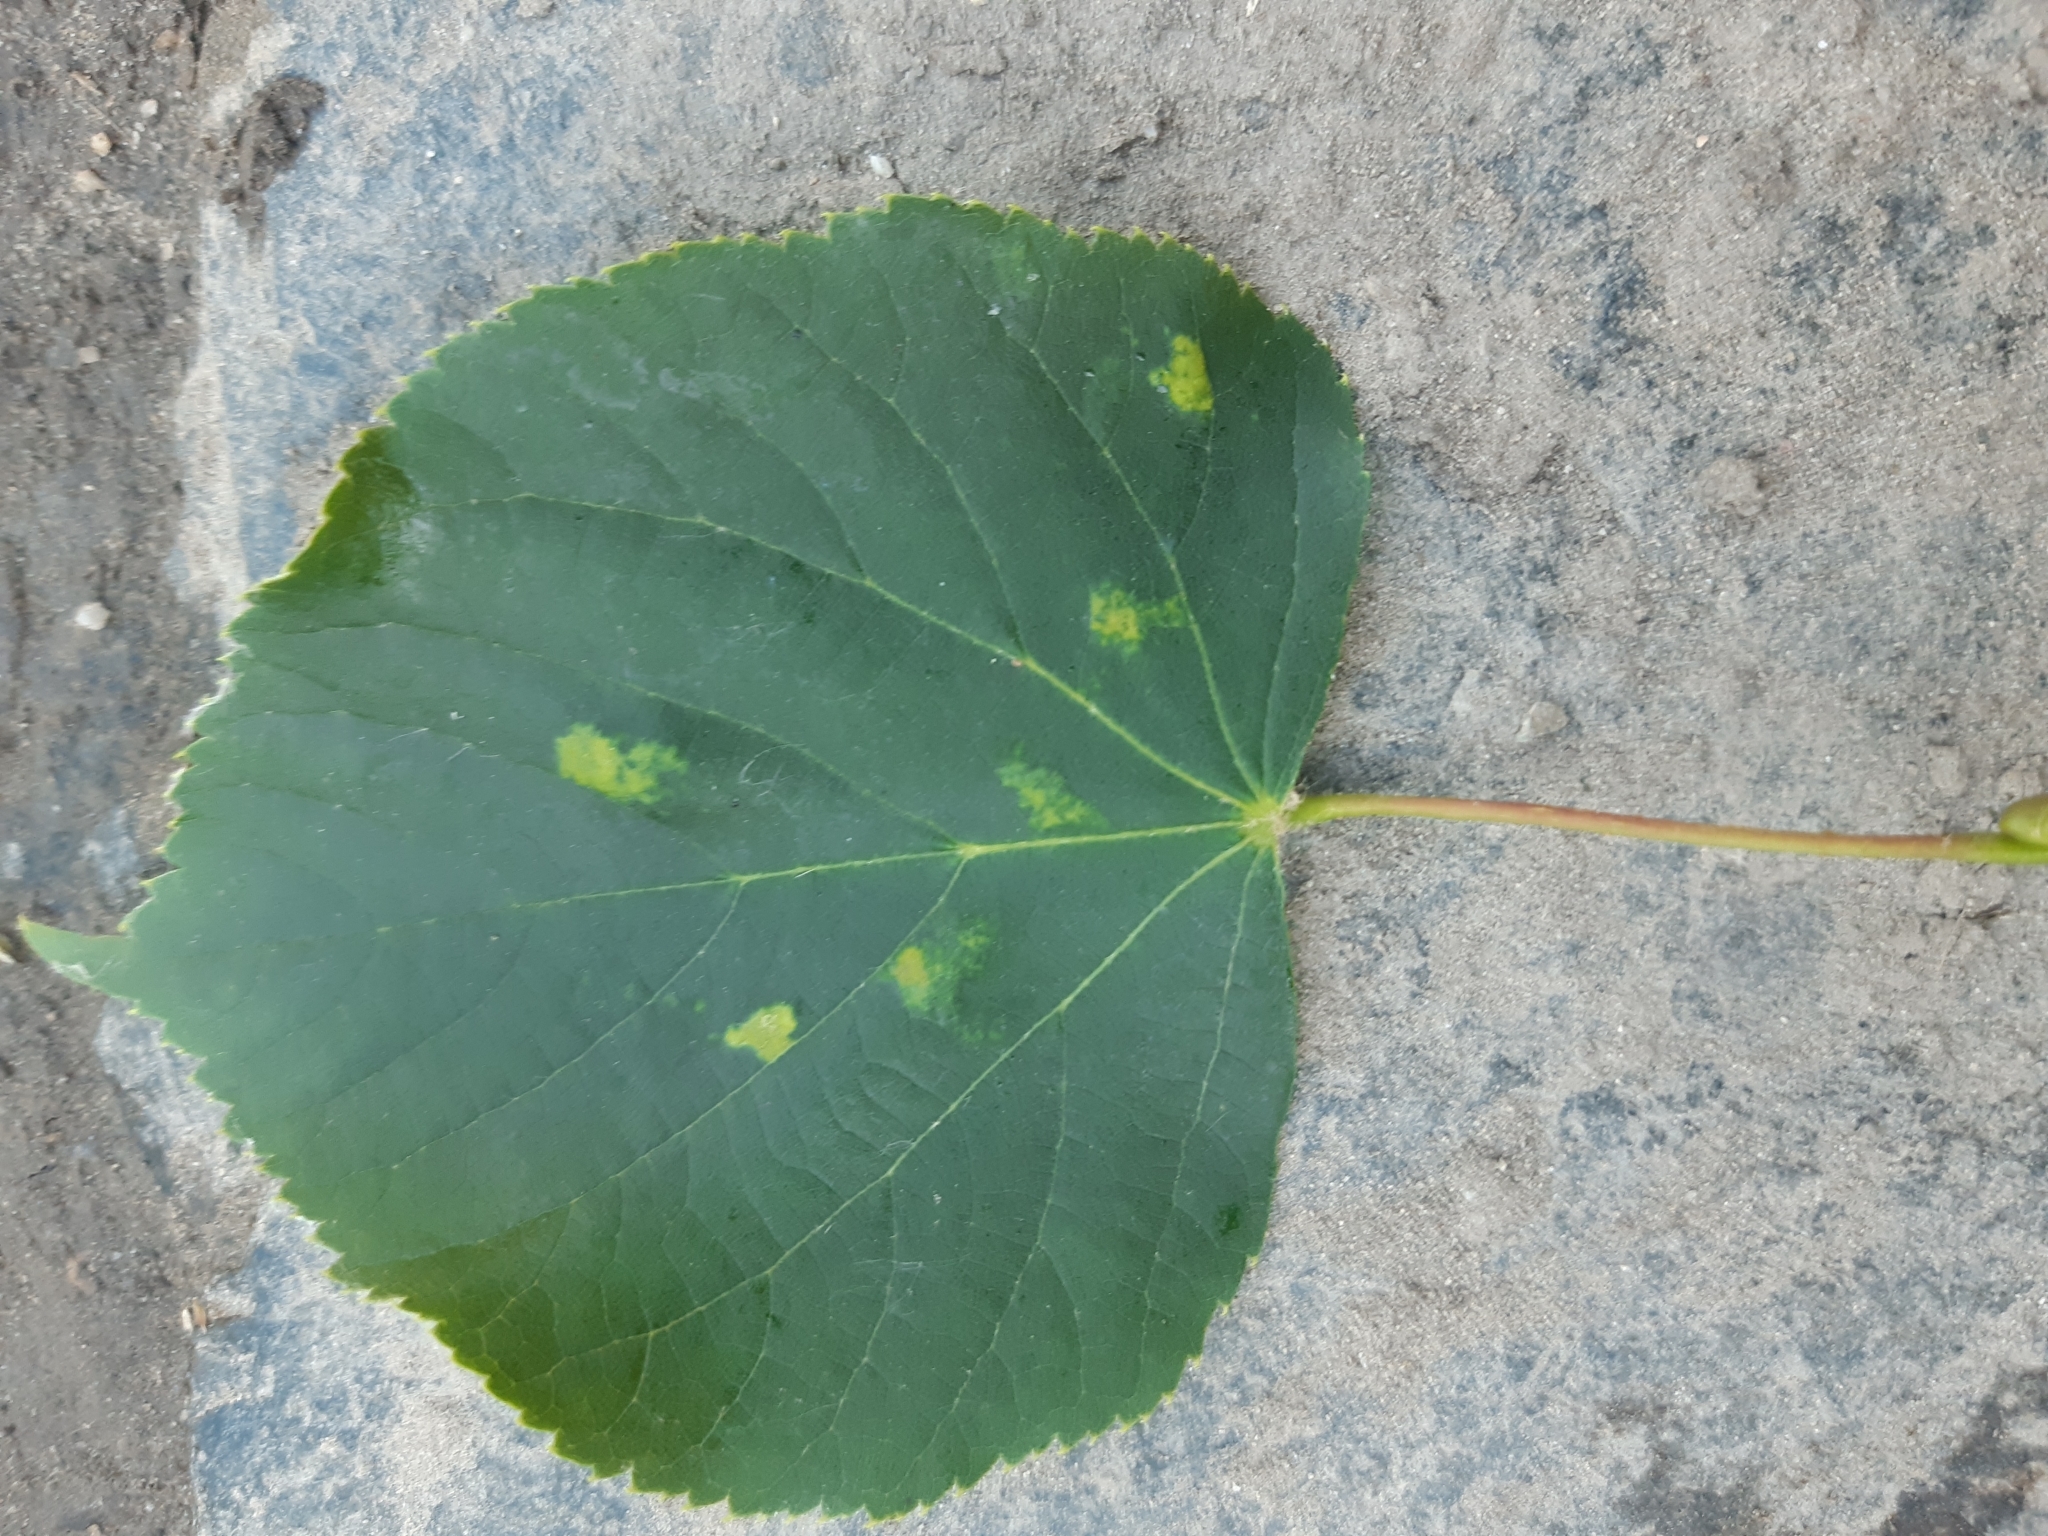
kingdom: Animalia
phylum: Arthropoda
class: Arachnida
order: Trombidiformes
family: Eriophyidae
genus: Eriophyes
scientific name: Eriophyes exilis
